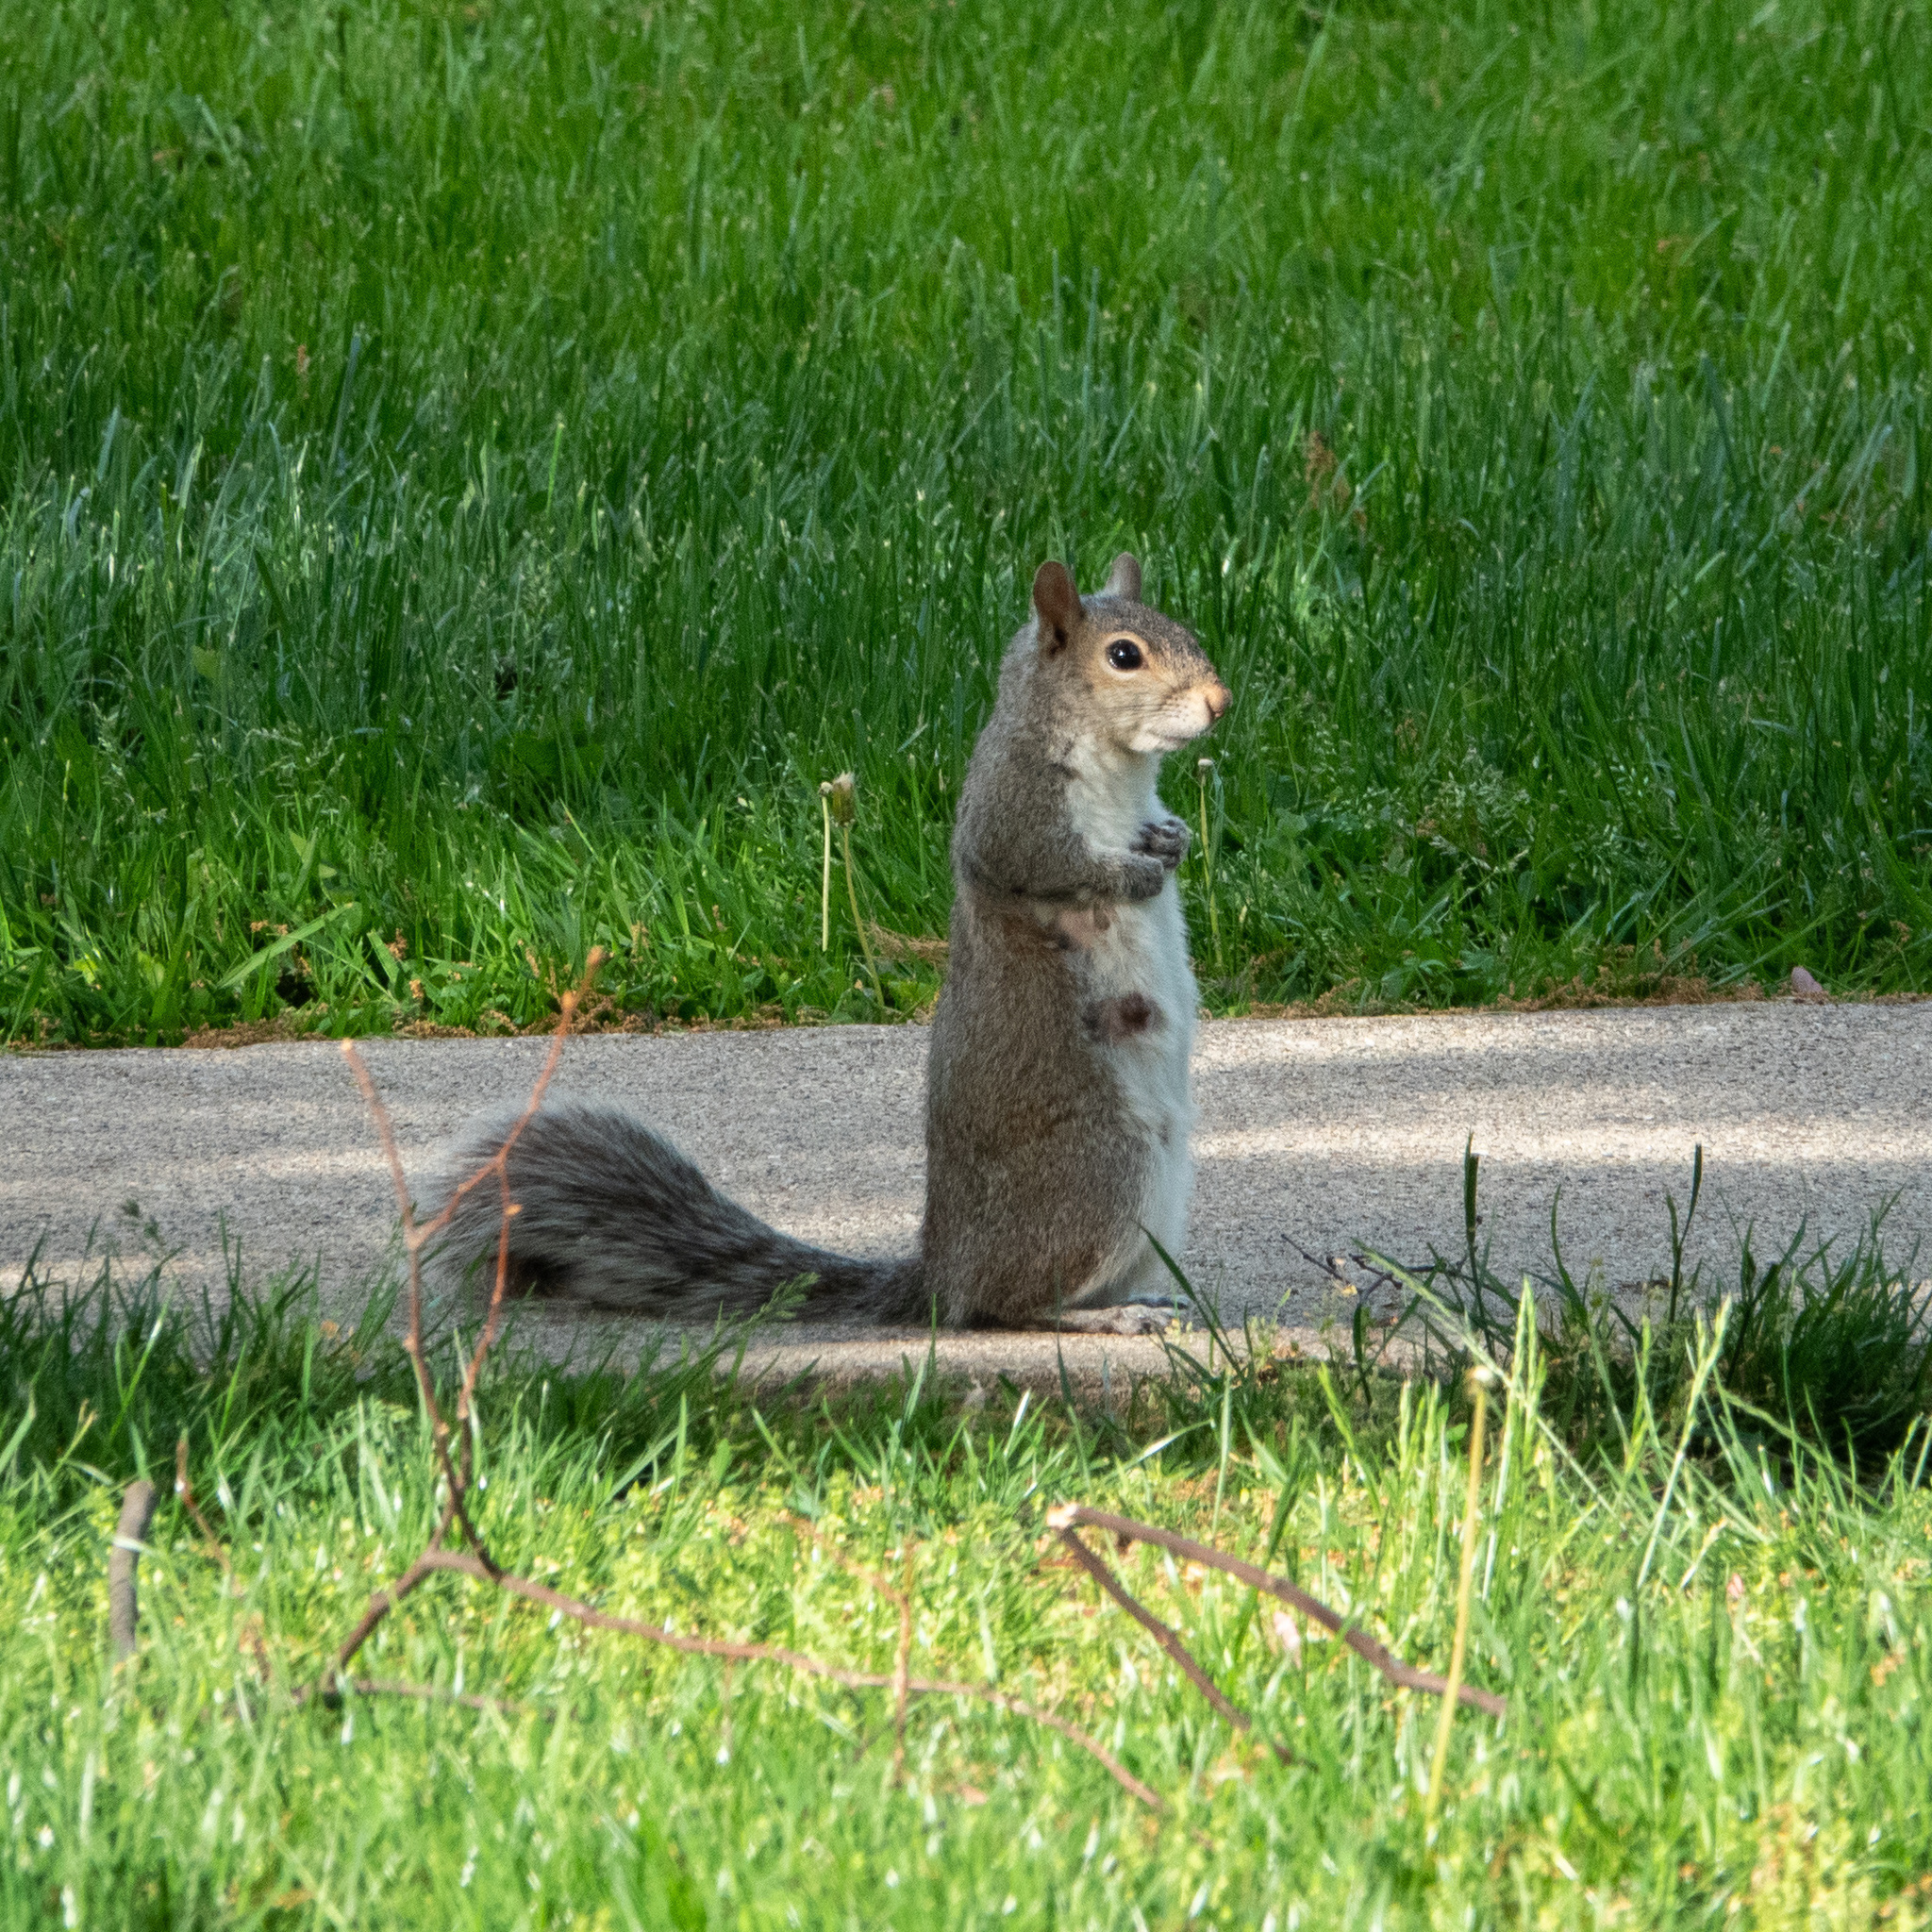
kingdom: Animalia
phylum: Chordata
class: Mammalia
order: Rodentia
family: Sciuridae
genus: Sciurus
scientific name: Sciurus carolinensis
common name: Eastern gray squirrel
